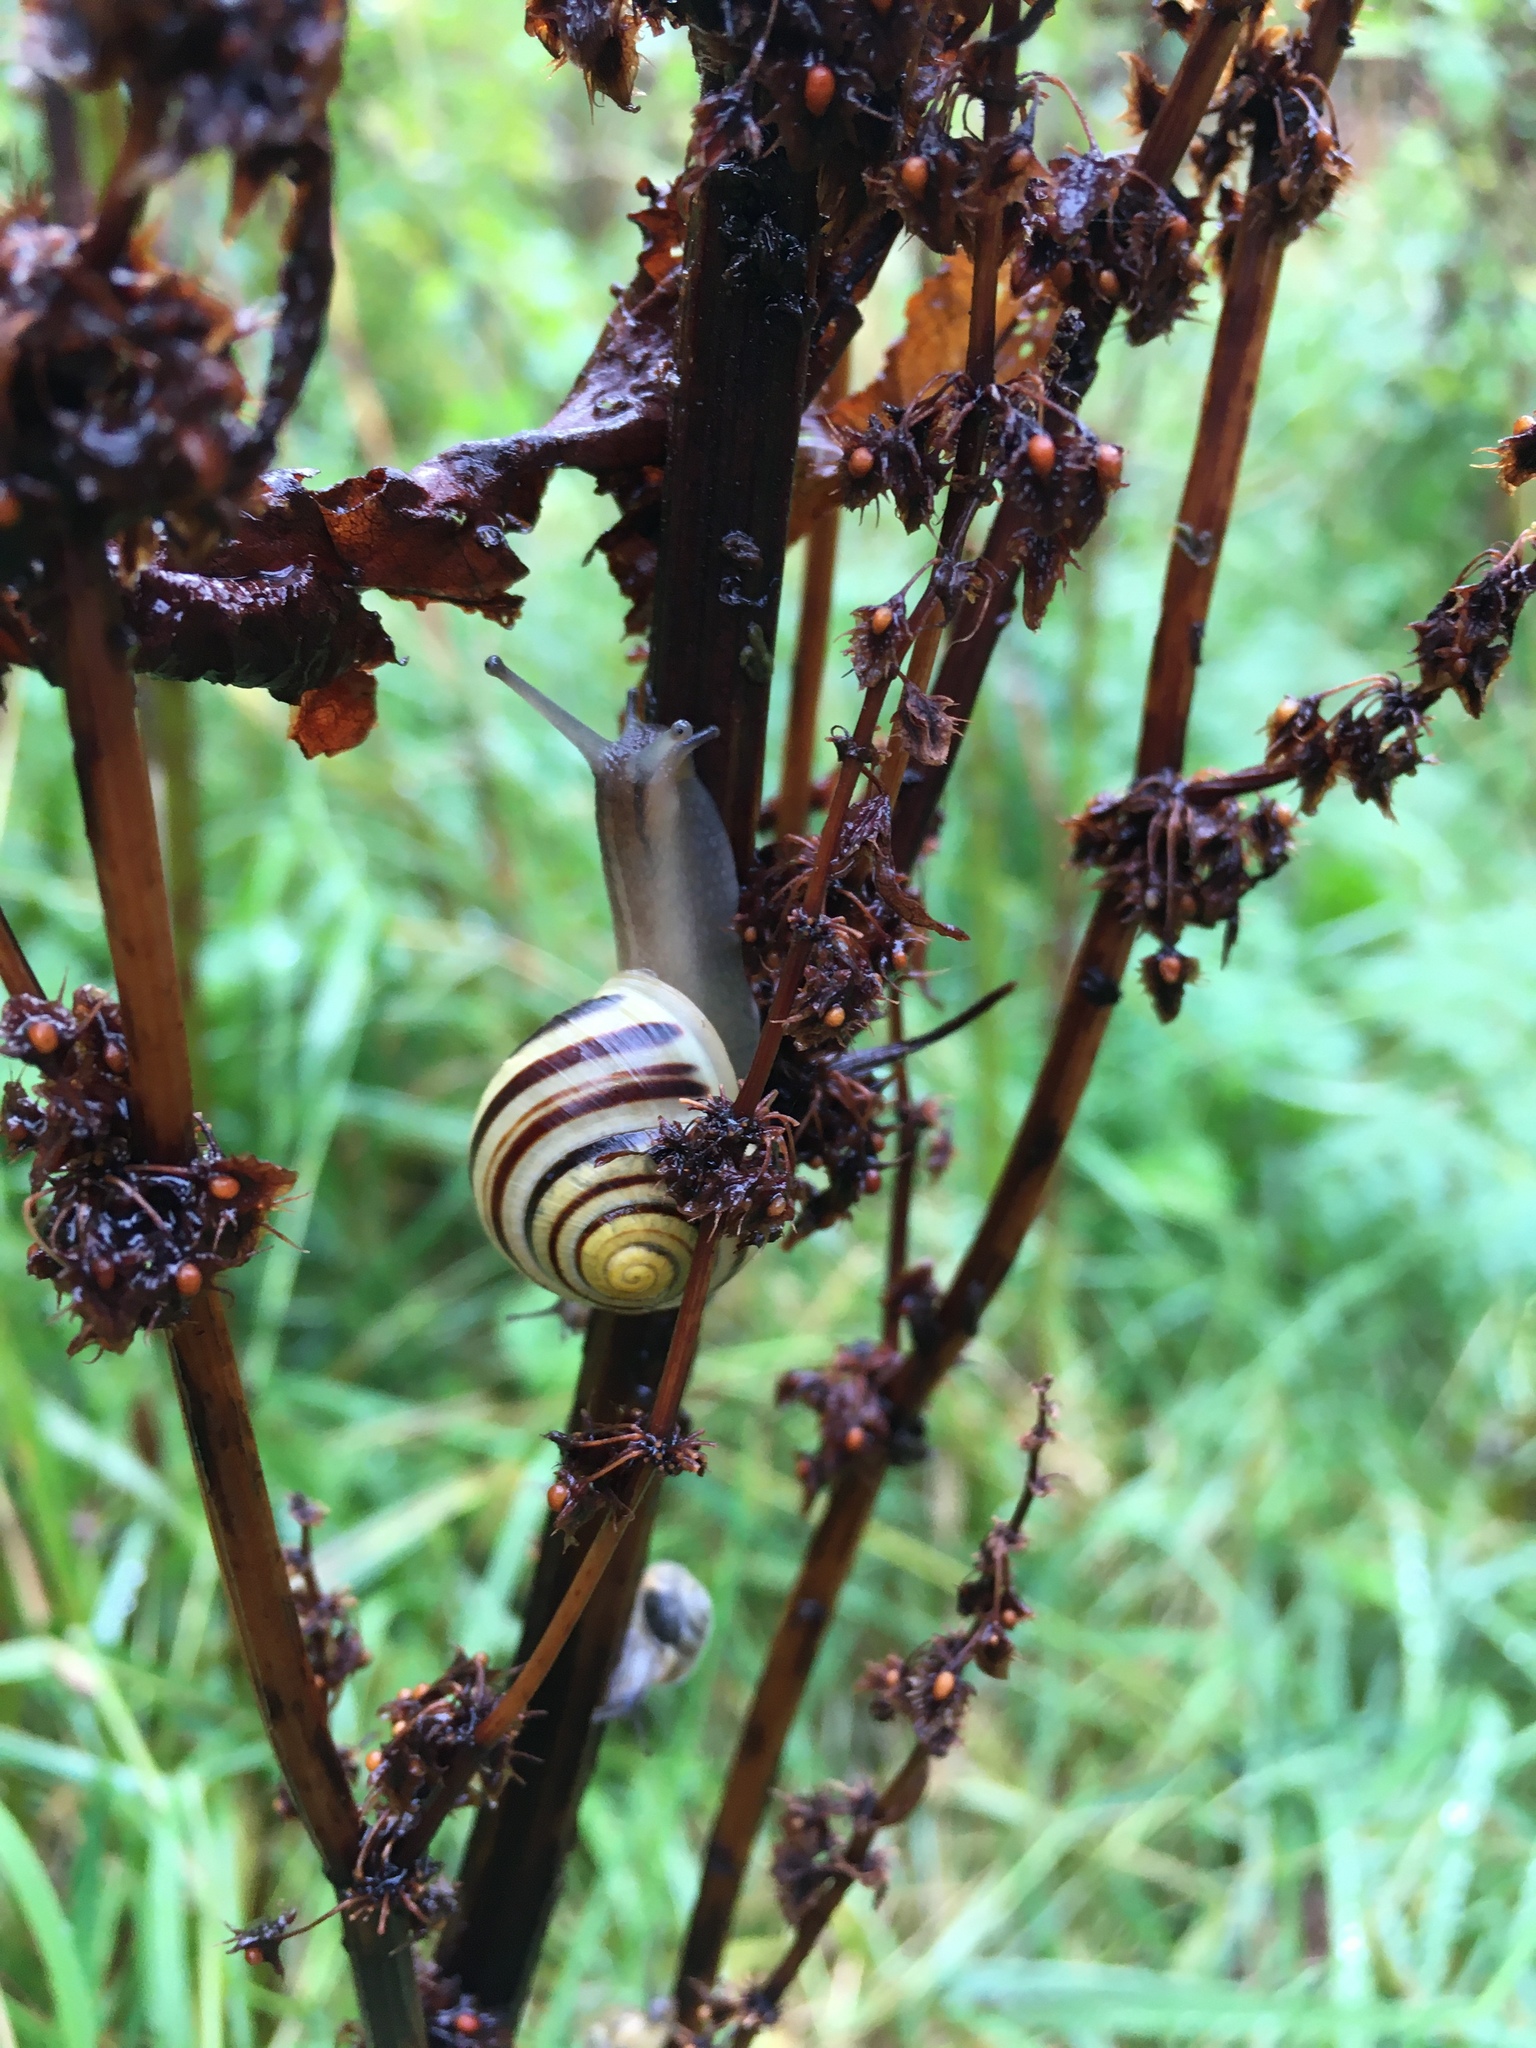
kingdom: Animalia
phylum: Mollusca
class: Gastropoda
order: Stylommatophora
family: Helicidae
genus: Cepaea
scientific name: Cepaea hortensis
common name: White-lip gardensnail
